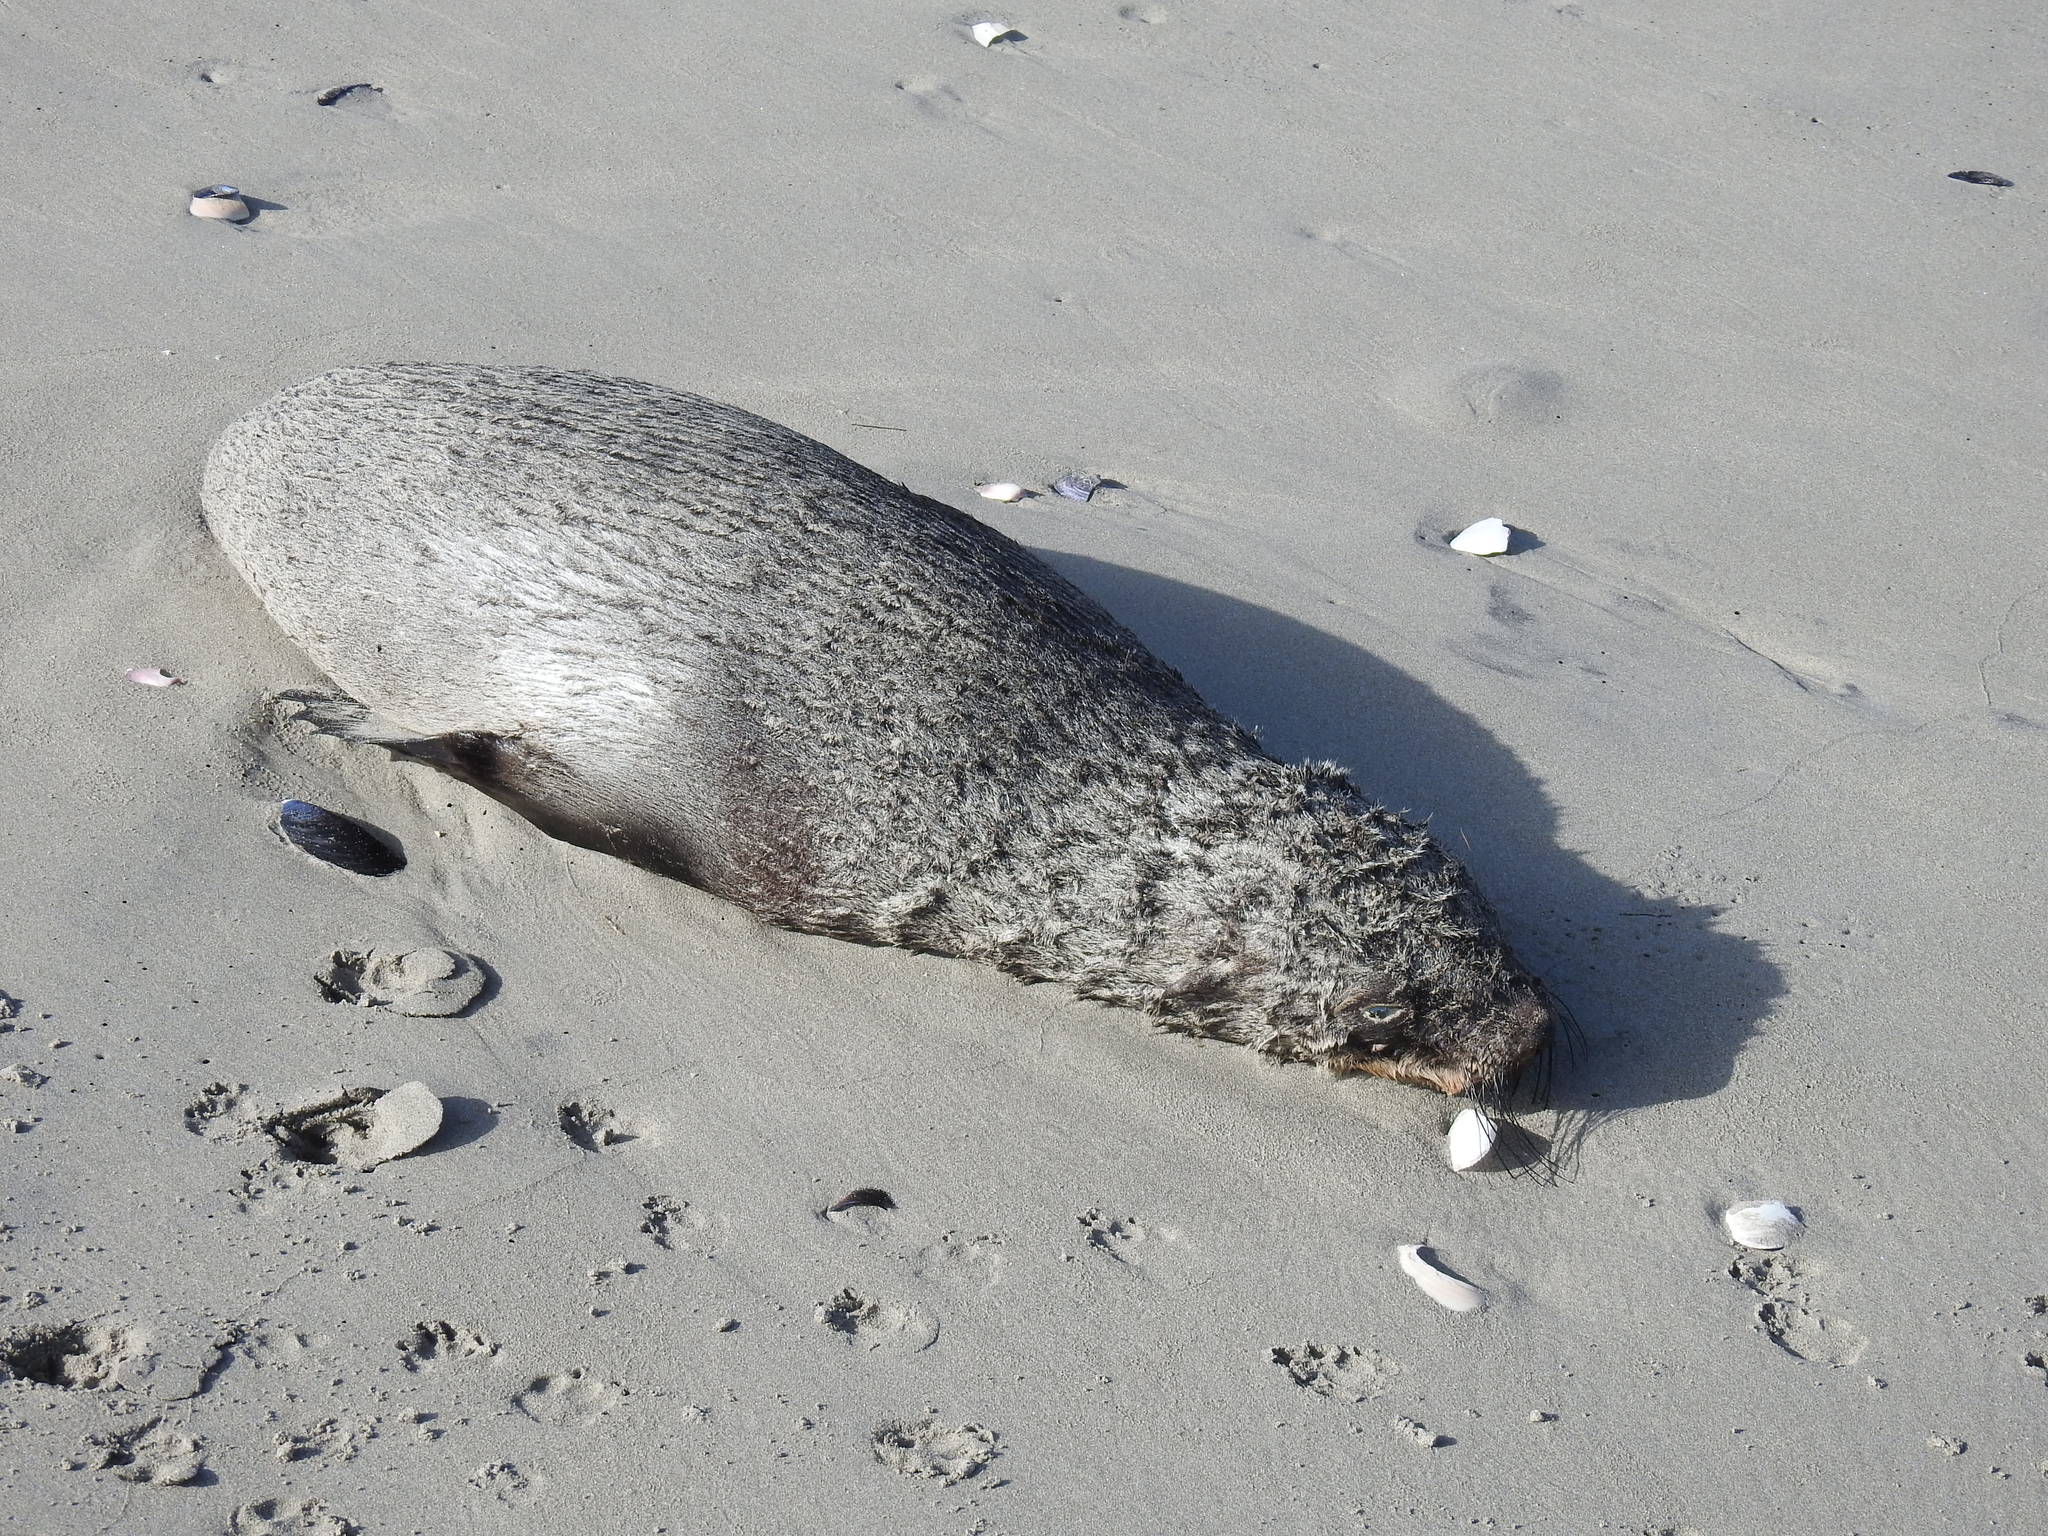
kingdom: Animalia
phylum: Chordata
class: Mammalia
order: Carnivora
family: Otariidae
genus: Arctocephalus
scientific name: Arctocephalus pusillus
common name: Brown fur seal
